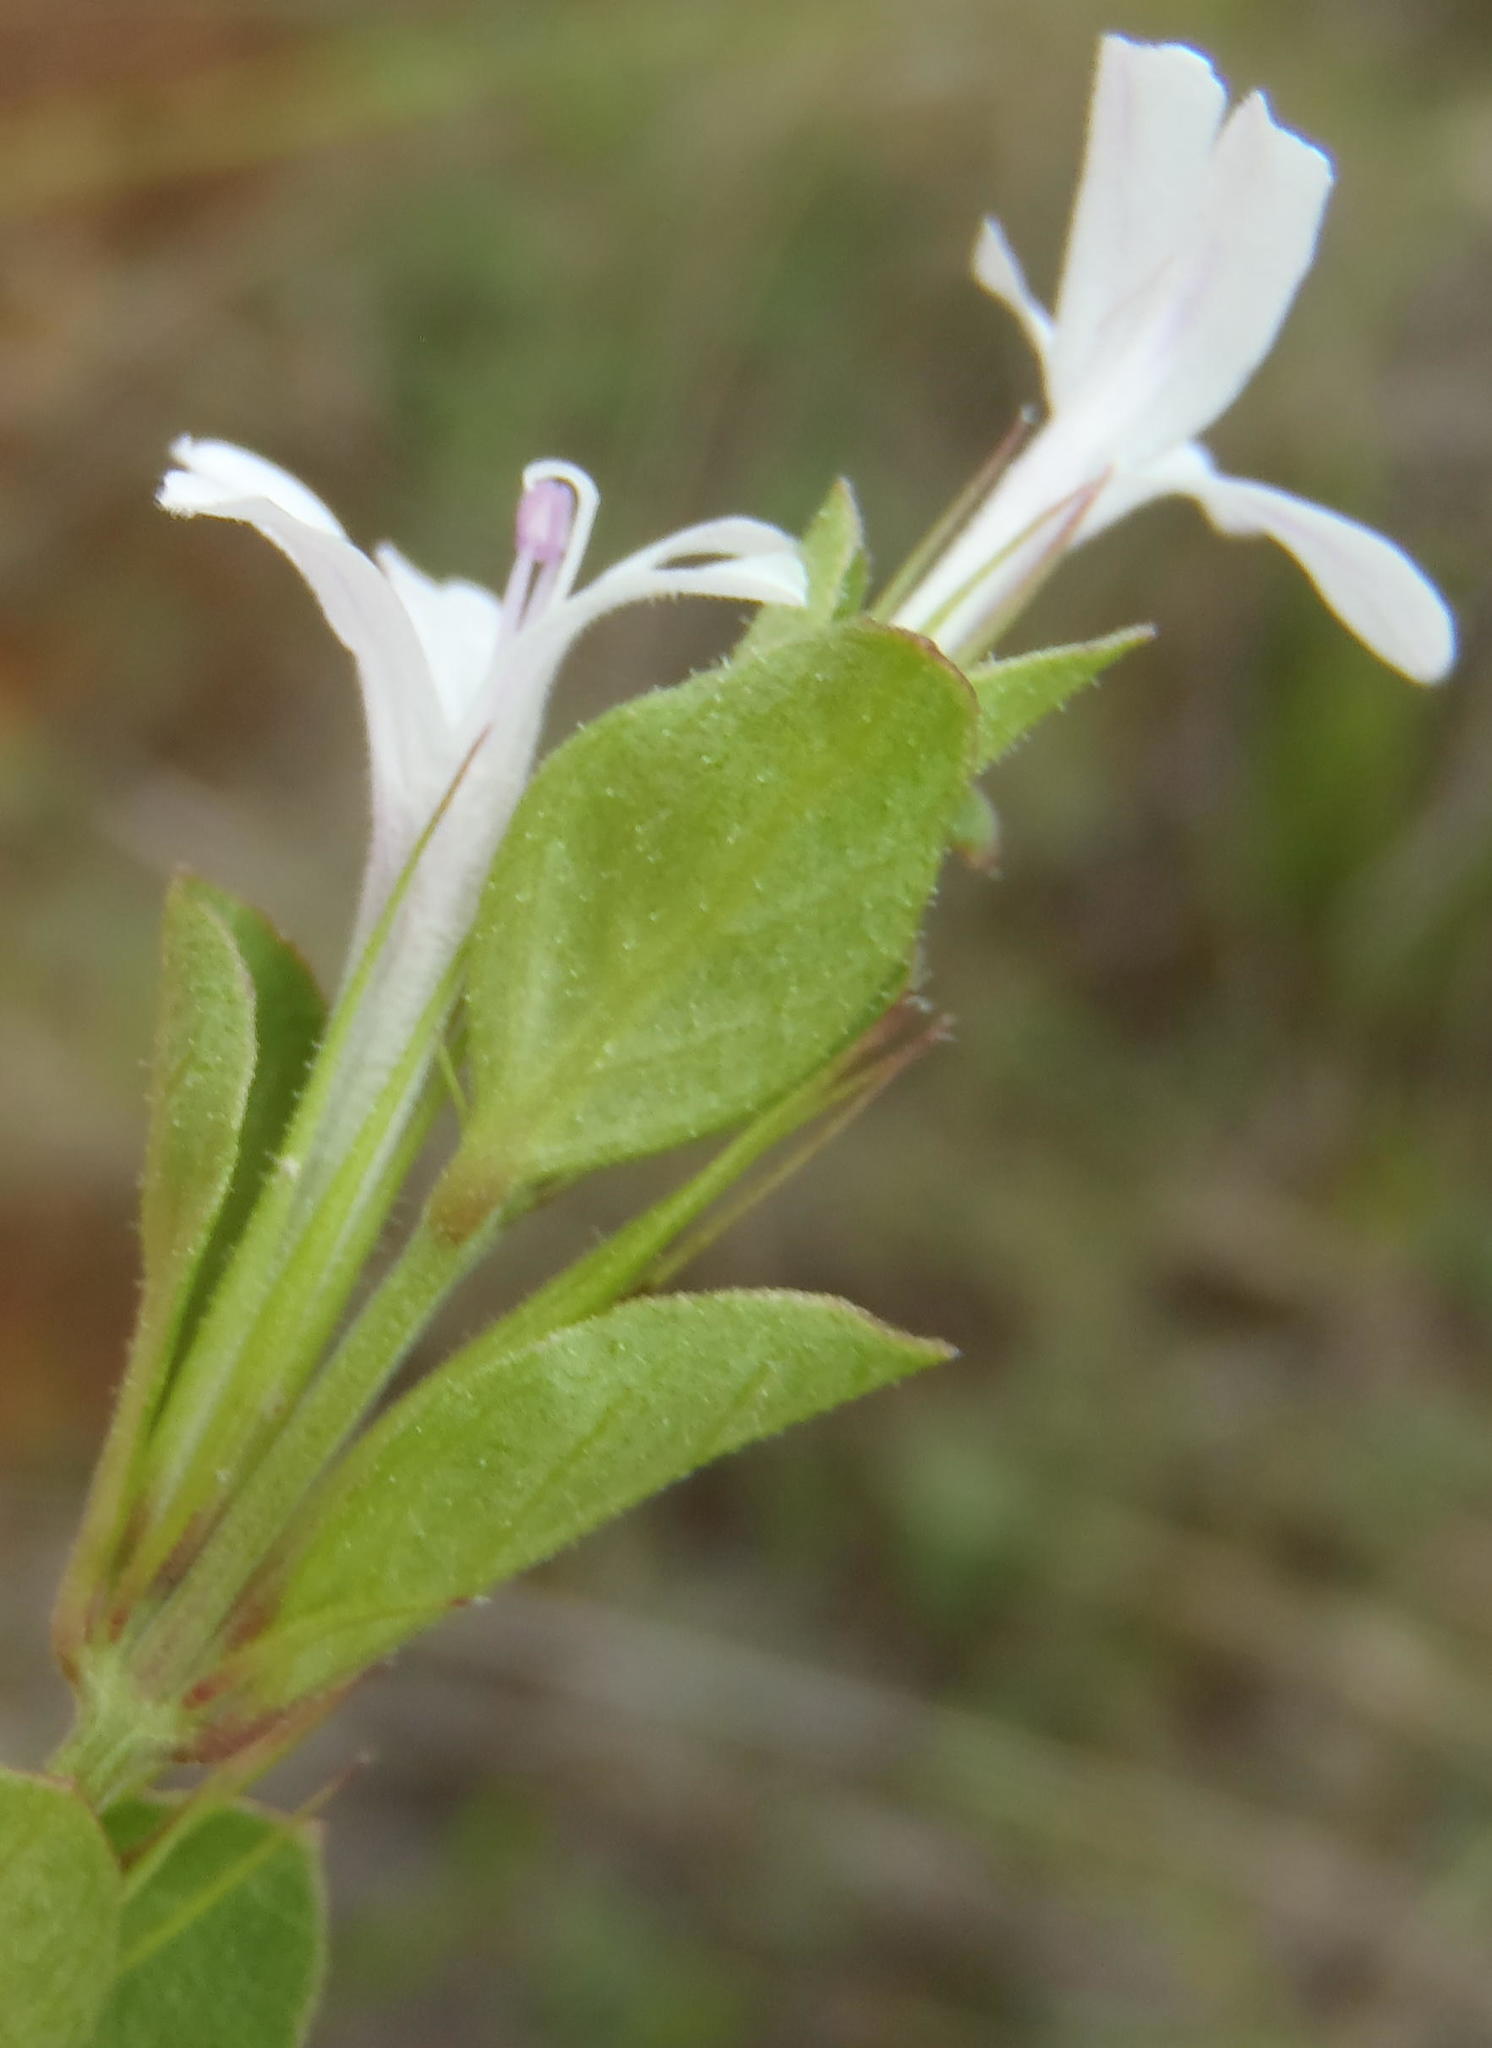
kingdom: Plantae
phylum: Tracheophyta
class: Magnoliopsida
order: Lamiales
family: Acanthaceae
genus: Dyschoriste
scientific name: Dyschoriste setigera
